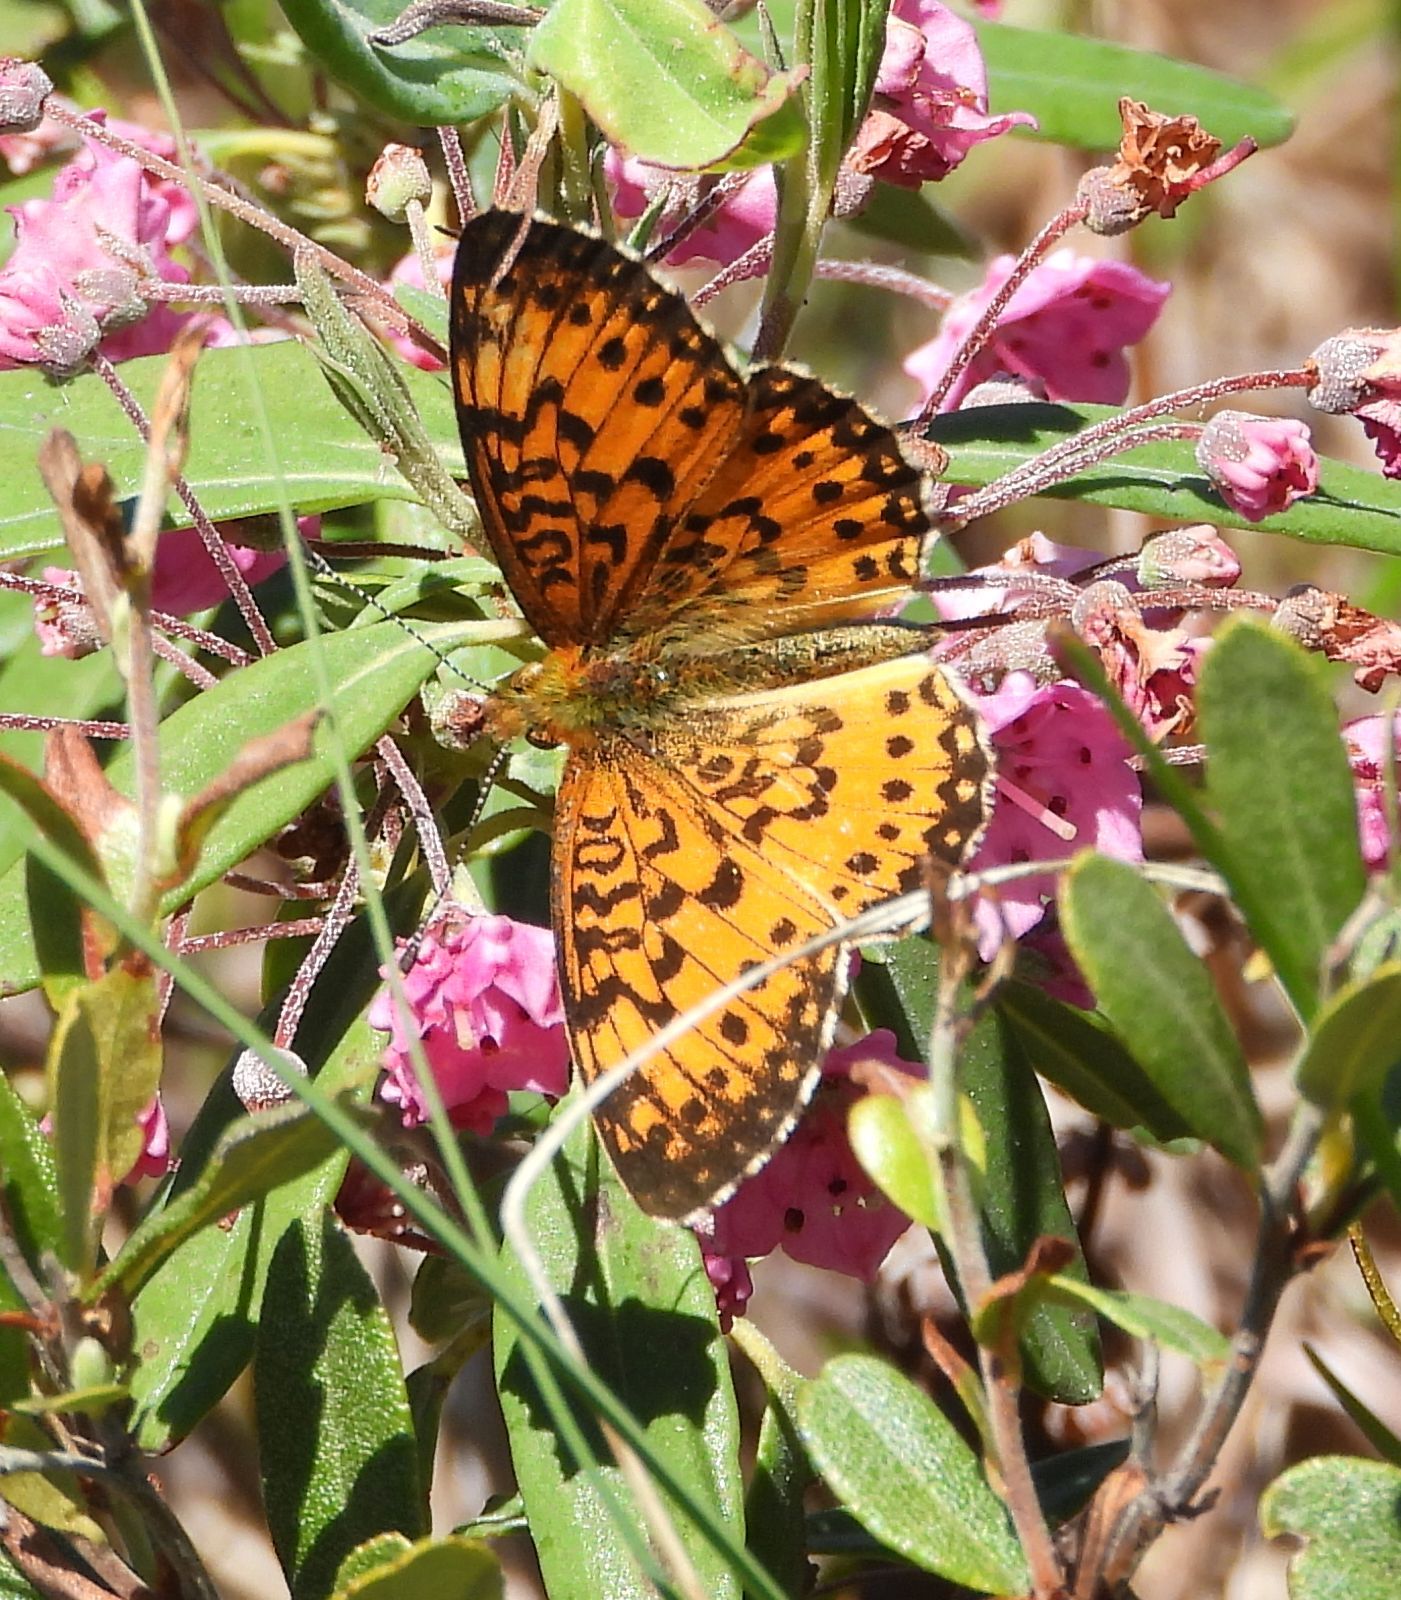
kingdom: Animalia
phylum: Arthropoda
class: Insecta
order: Lepidoptera
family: Nymphalidae
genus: Boloria
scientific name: Boloria
